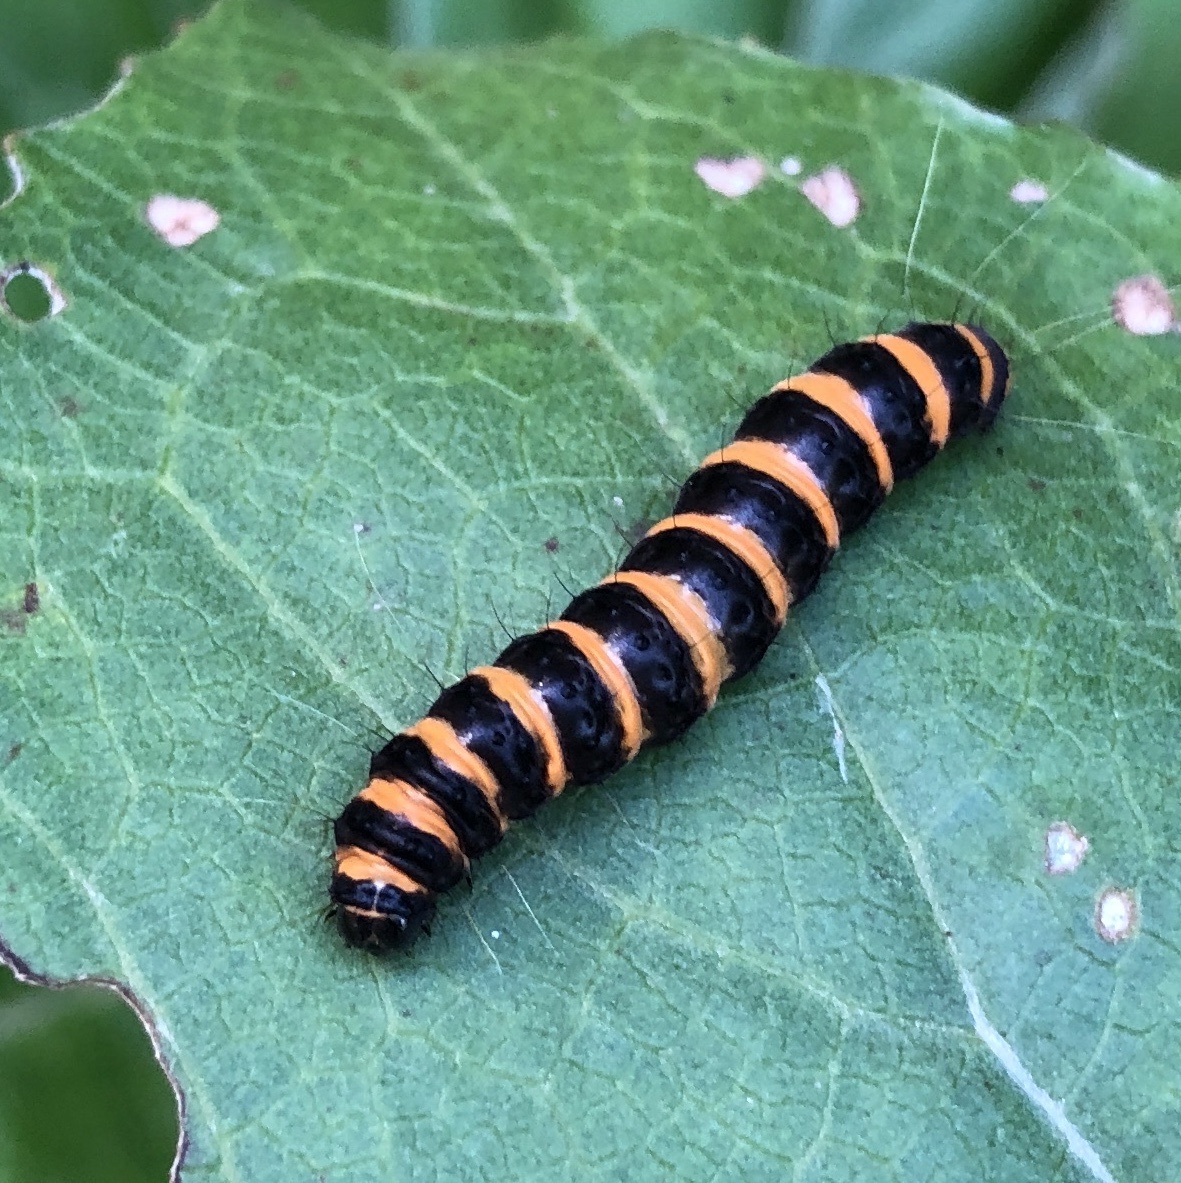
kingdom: Animalia
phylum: Arthropoda
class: Insecta
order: Lepidoptera
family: Erebidae
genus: Tyria
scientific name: Tyria jacobaeae
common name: Cinnabar
